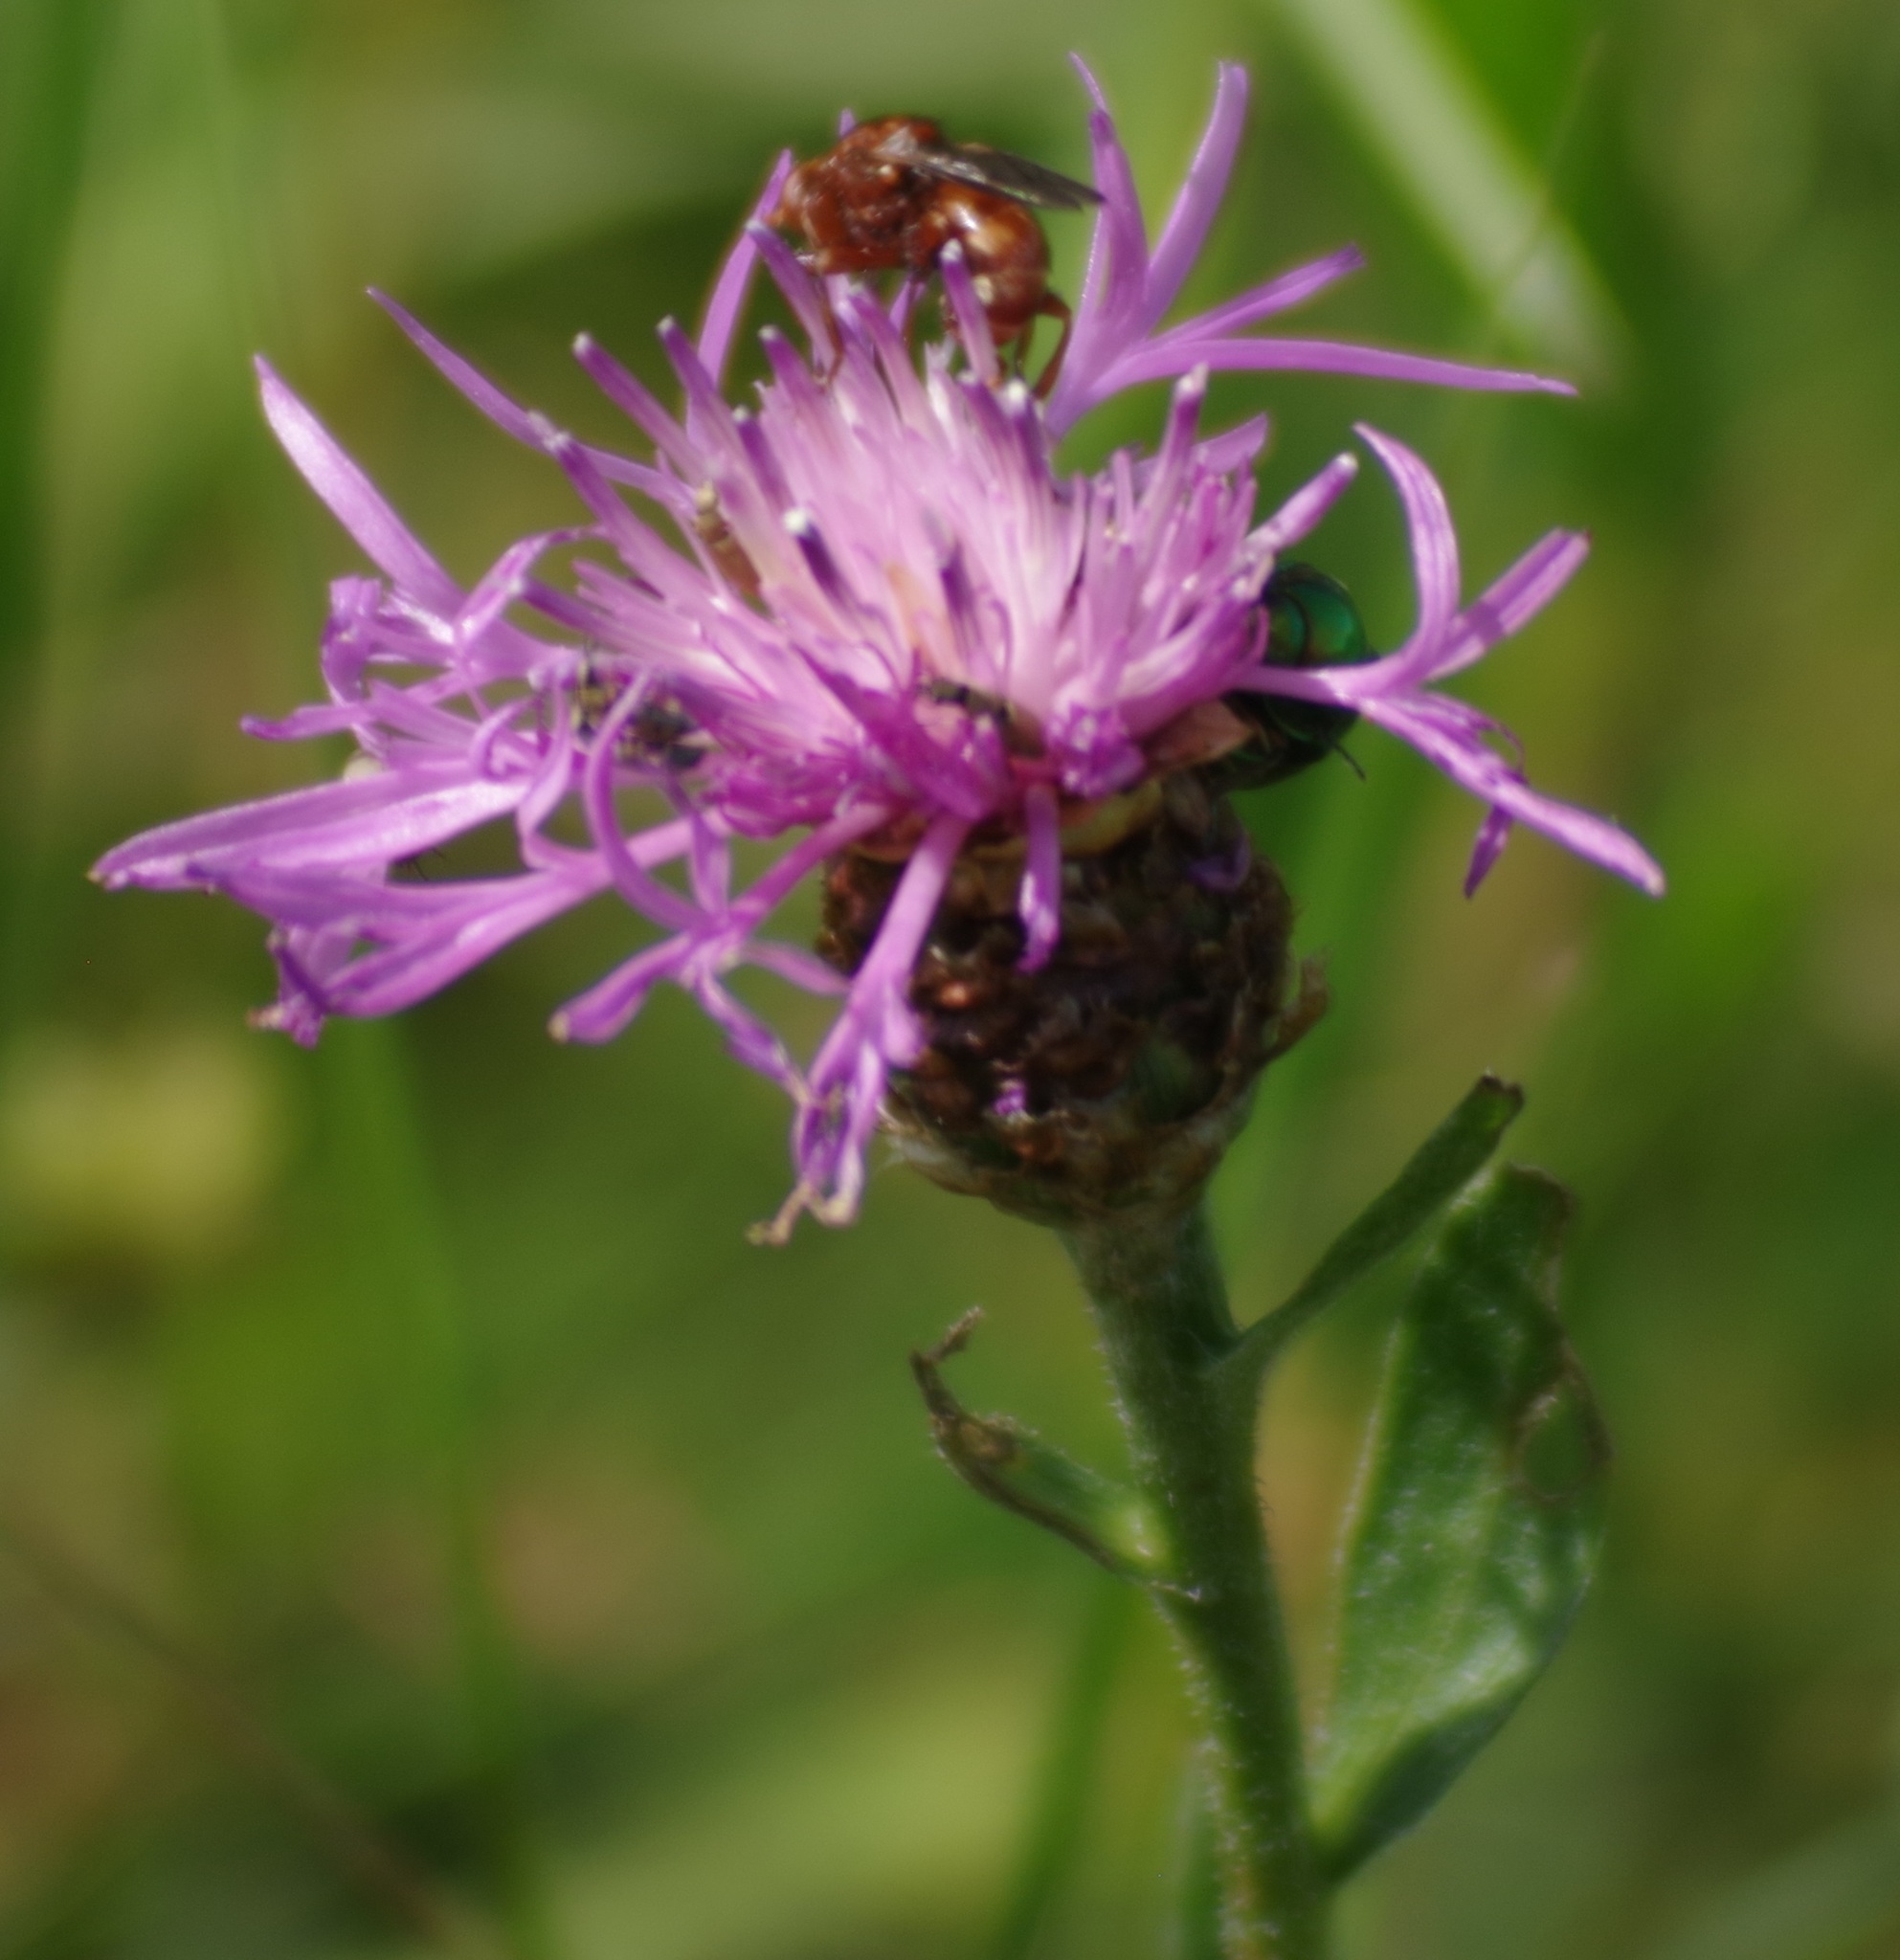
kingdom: Plantae
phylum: Tracheophyta
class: Magnoliopsida
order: Asterales
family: Asteraceae
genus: Centaurea
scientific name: Centaurea jacea
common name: Brown knapweed
